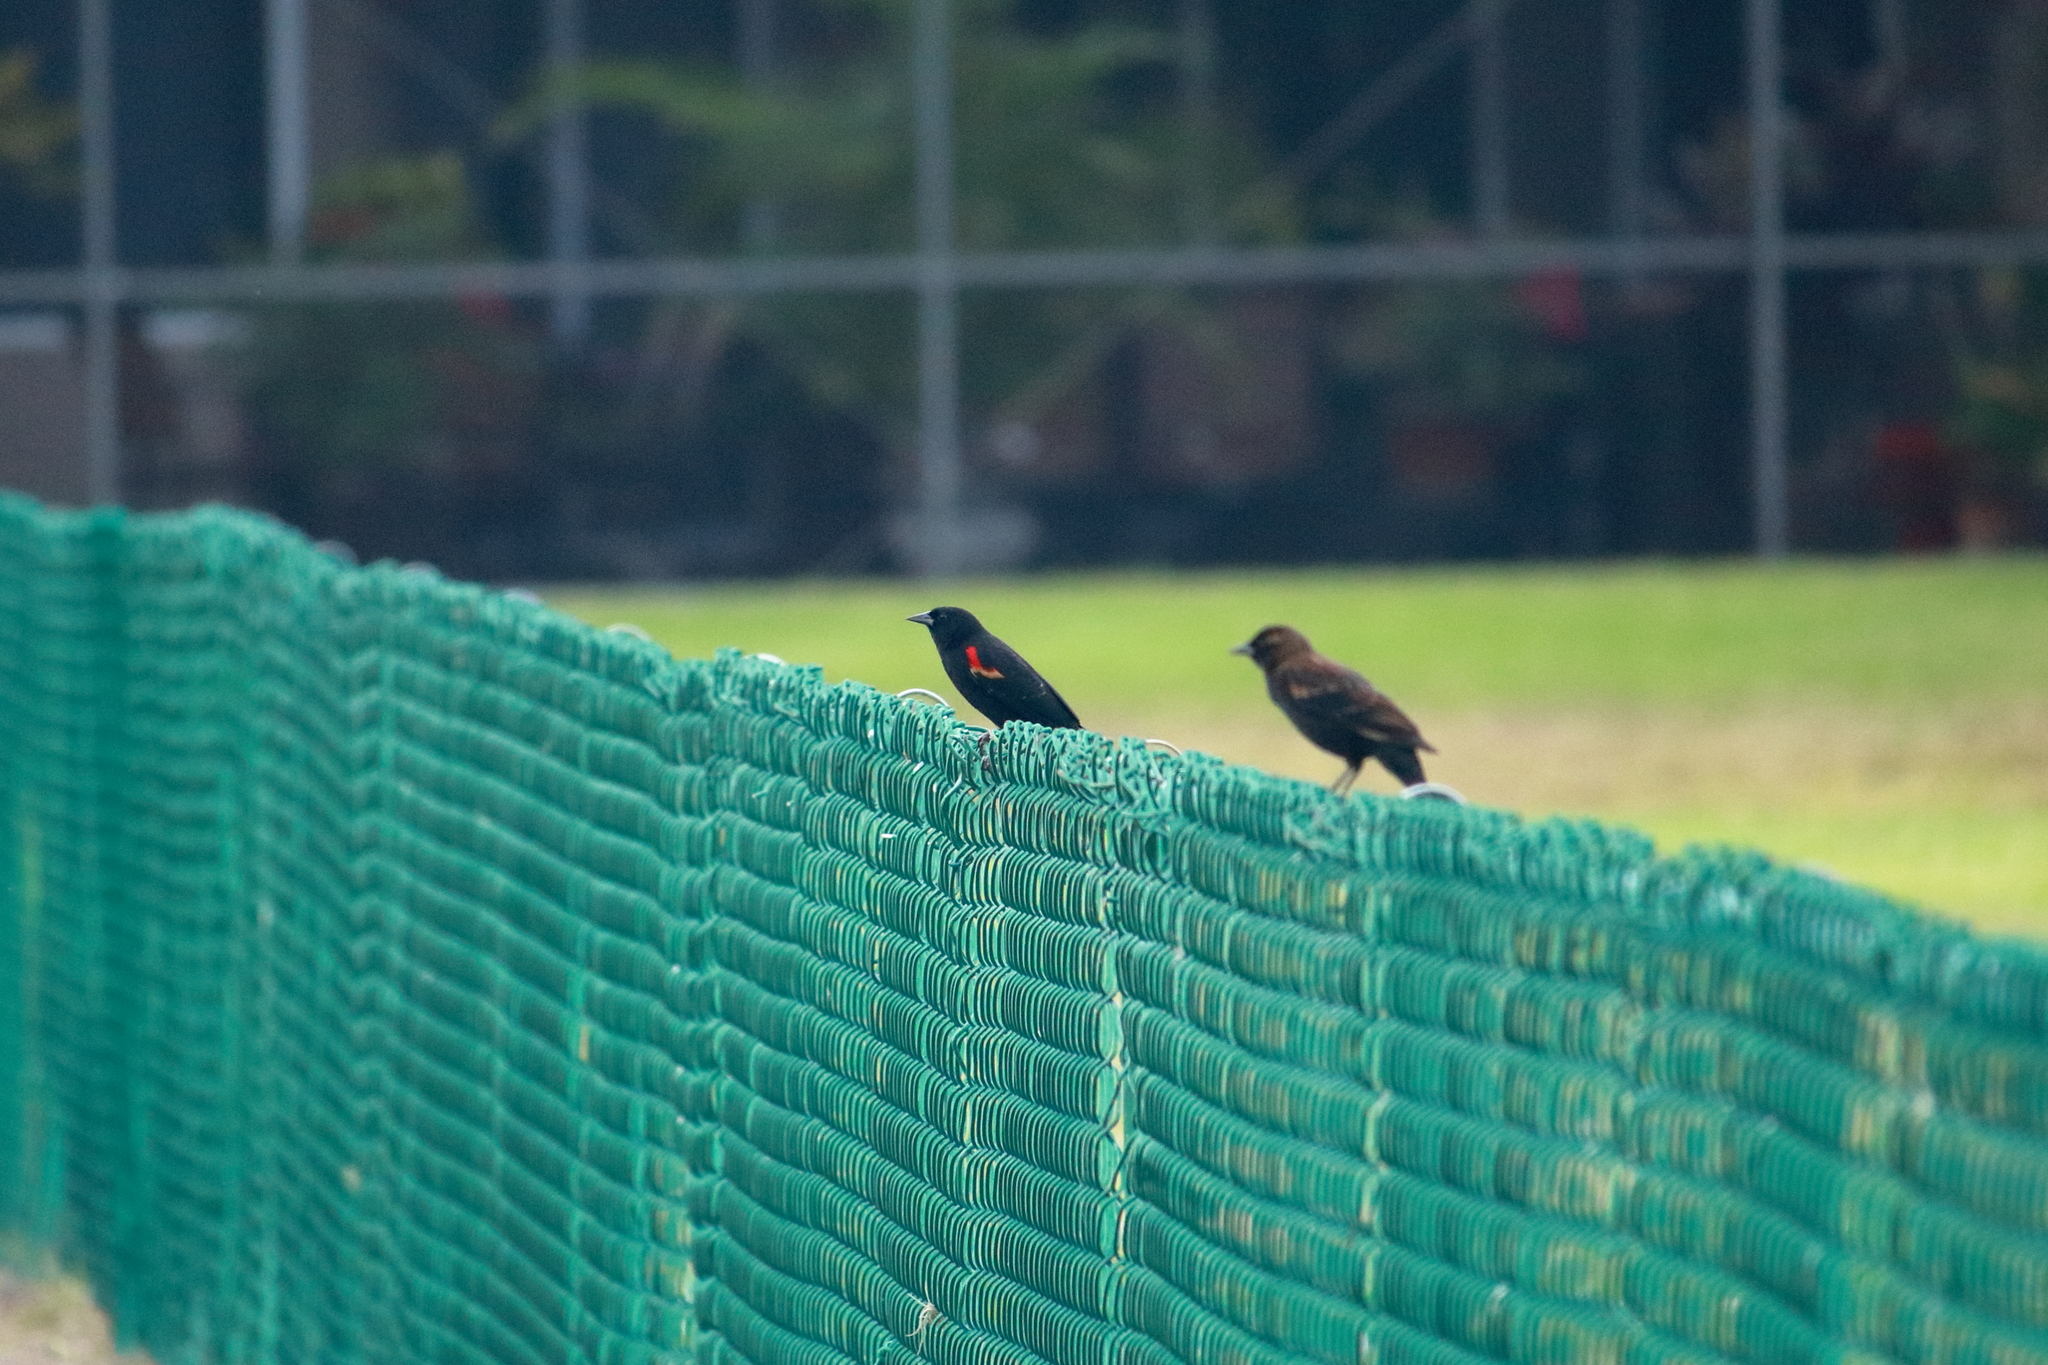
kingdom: Animalia
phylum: Chordata
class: Aves
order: Passeriformes
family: Icteridae
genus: Agelaius
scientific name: Agelaius phoeniceus
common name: Red-winged blackbird
